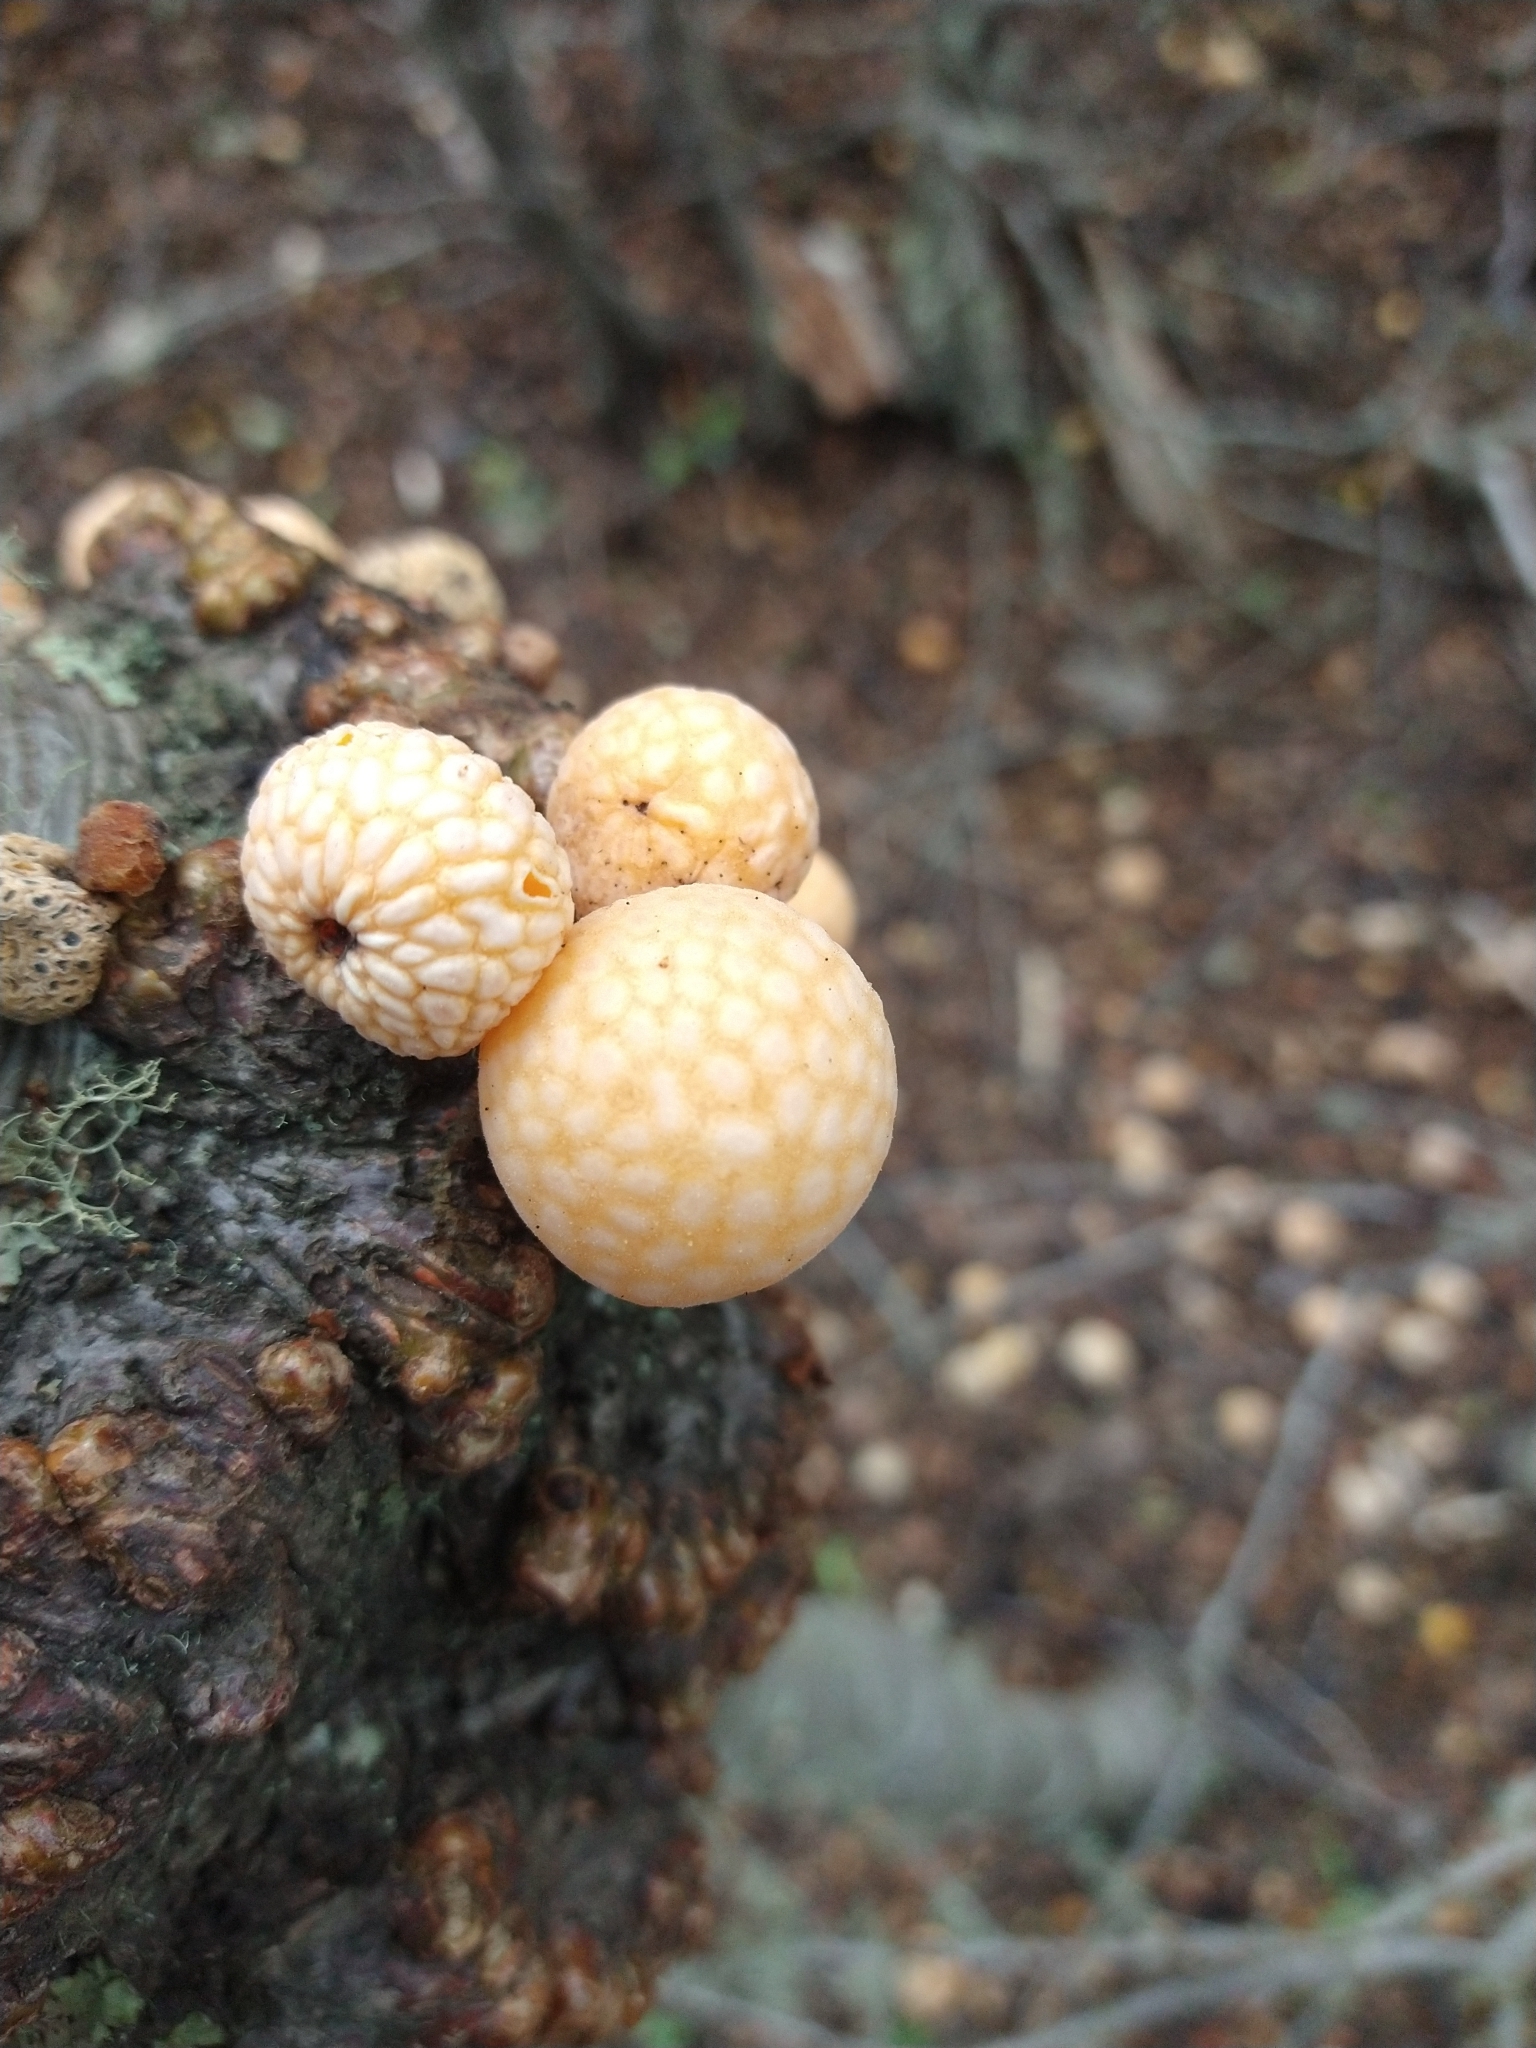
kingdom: Fungi
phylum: Ascomycota
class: Leotiomycetes
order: Cyttariales
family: Cyttariaceae
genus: Cyttaria
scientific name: Cyttaria darwinii
